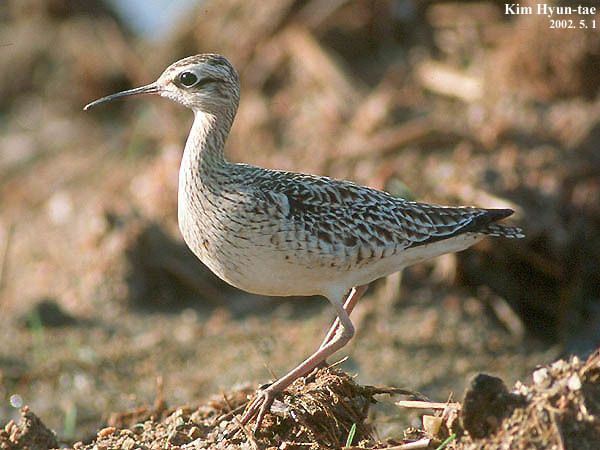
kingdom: Animalia
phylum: Chordata
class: Aves
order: Charadriiformes
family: Scolopacidae
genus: Numenius
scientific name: Numenius minutus
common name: Little curlew
